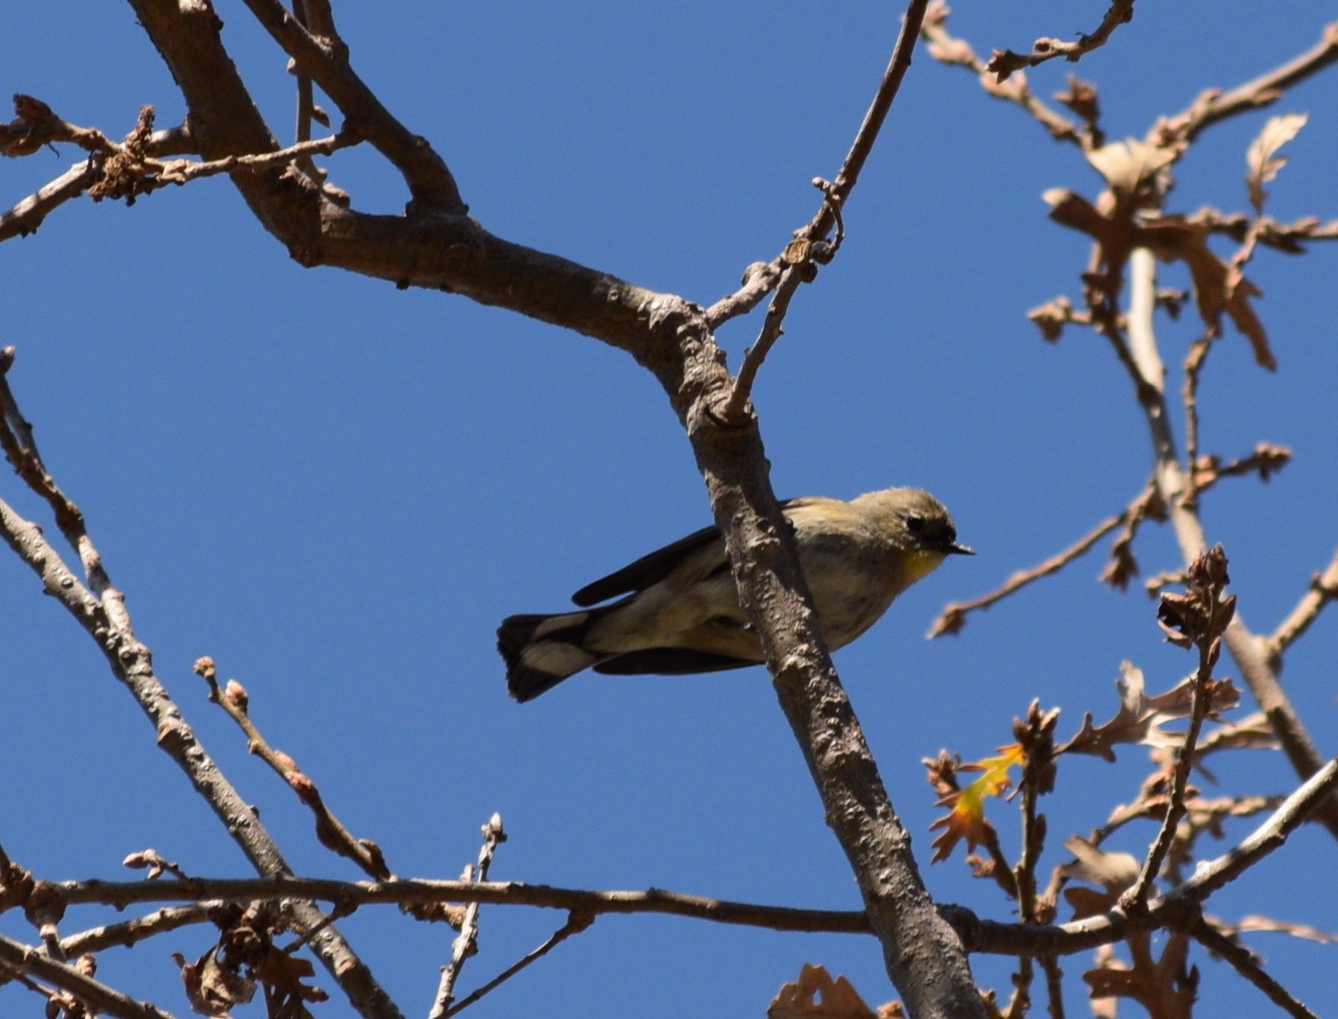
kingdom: Animalia
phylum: Chordata
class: Aves
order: Passeriformes
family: Parulidae
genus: Setophaga
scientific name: Setophaga coronata
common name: Myrtle warbler
